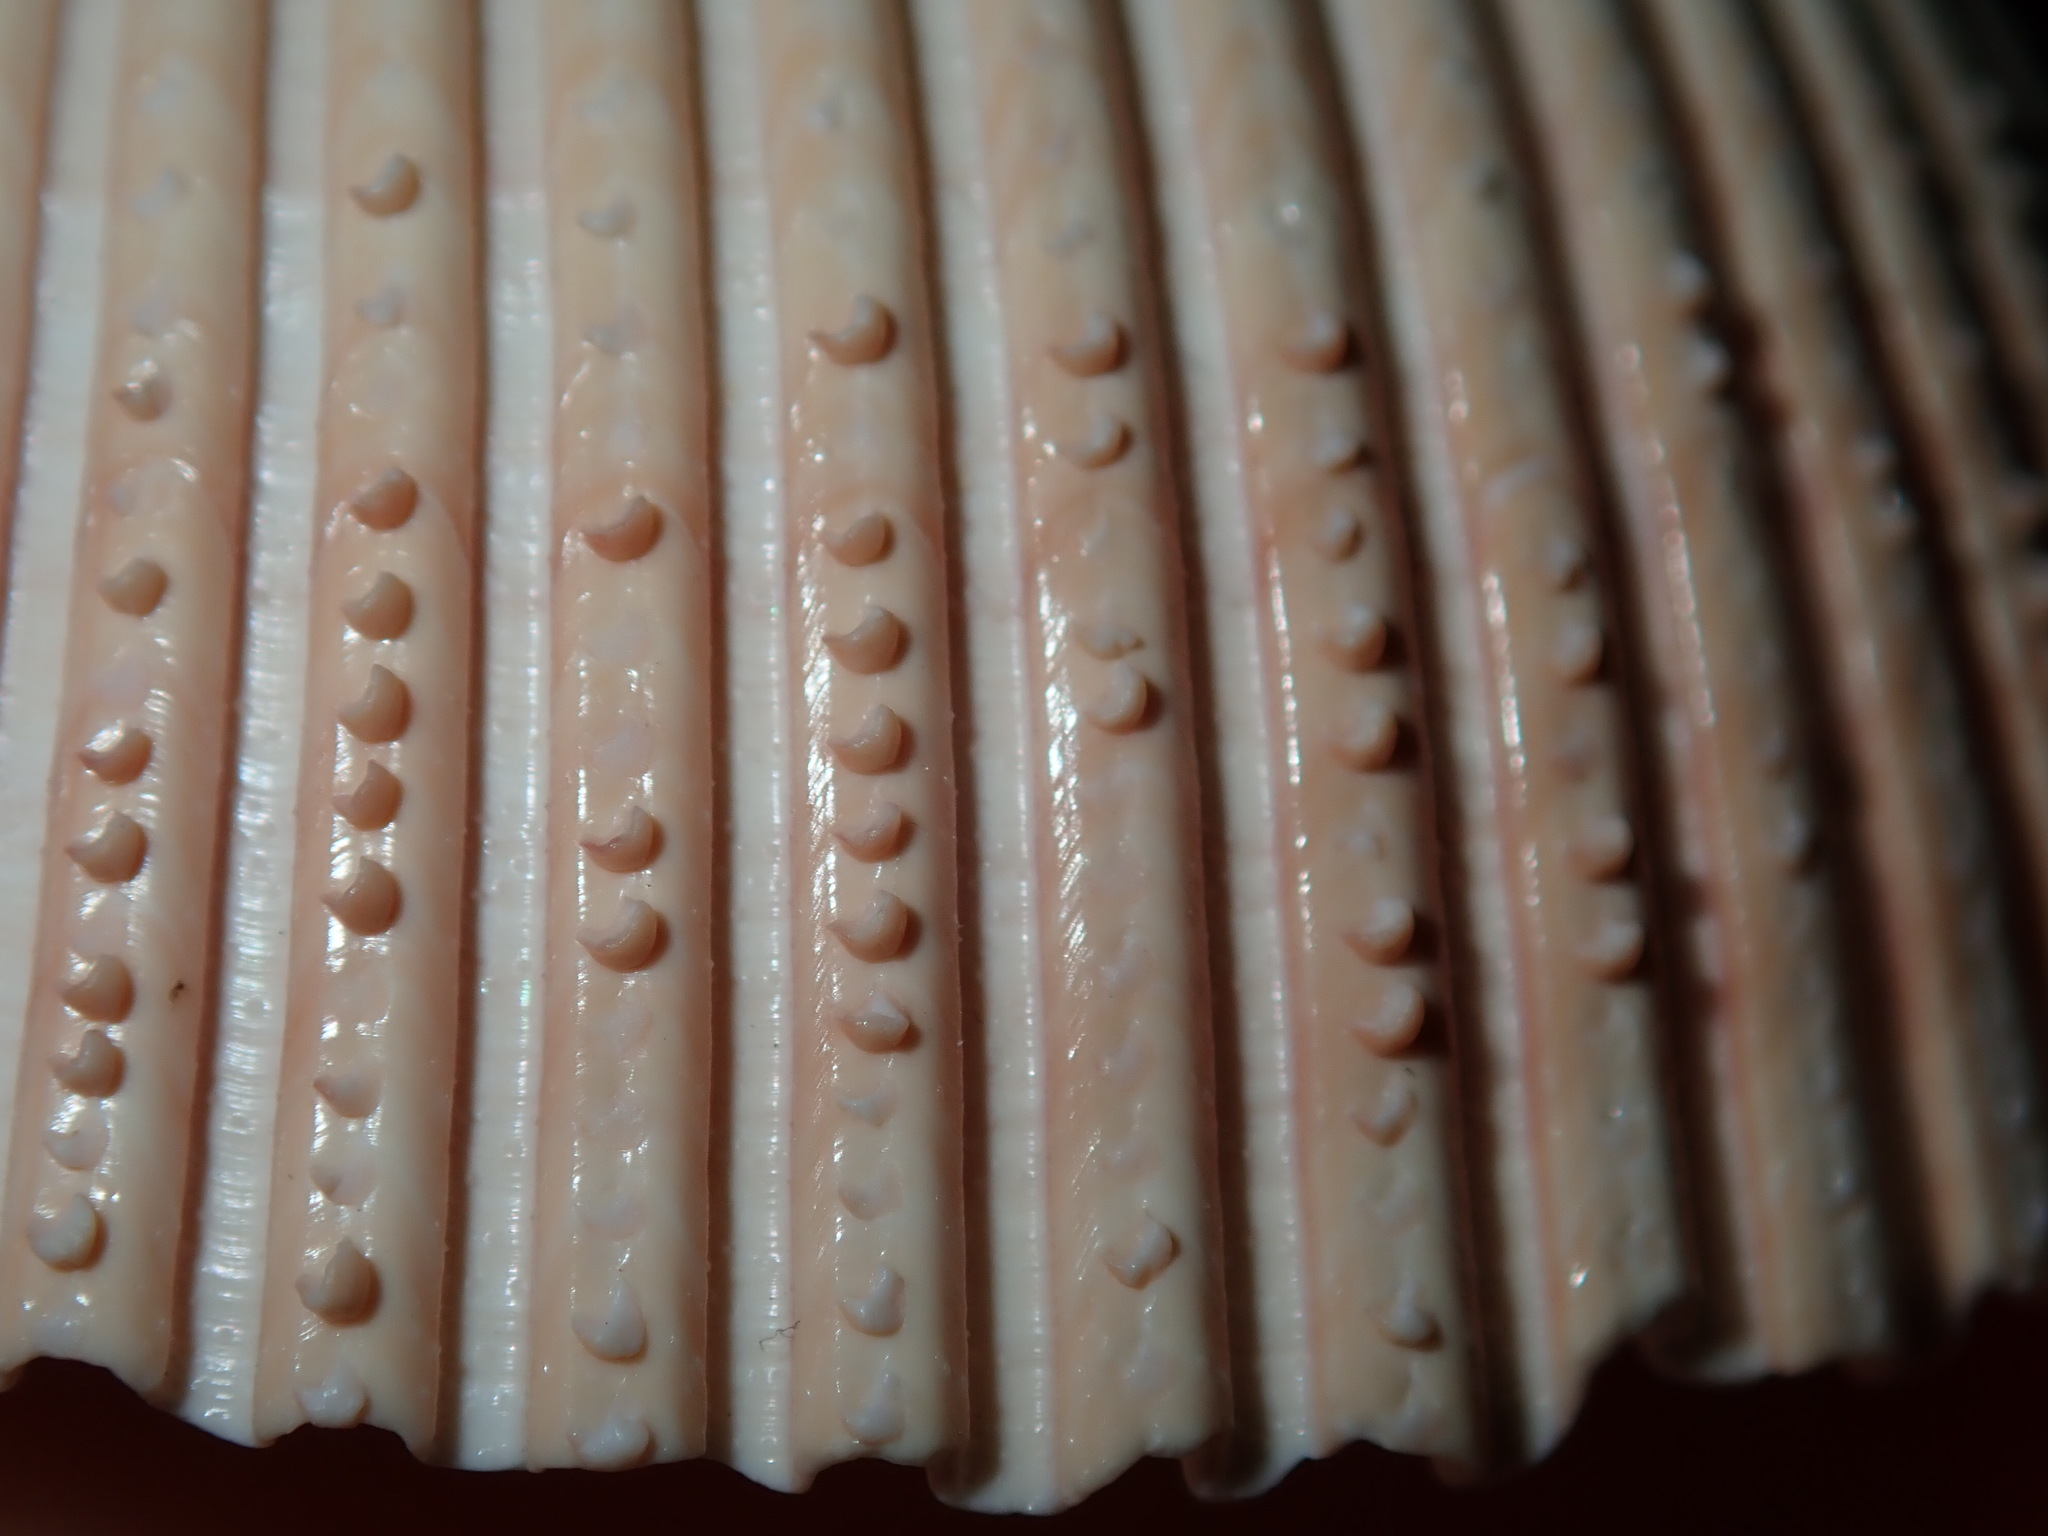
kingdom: Animalia
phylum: Mollusca
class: Bivalvia
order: Cardiida
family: Cardiidae
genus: Vepricardium
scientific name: Vepricardium multispinosum
